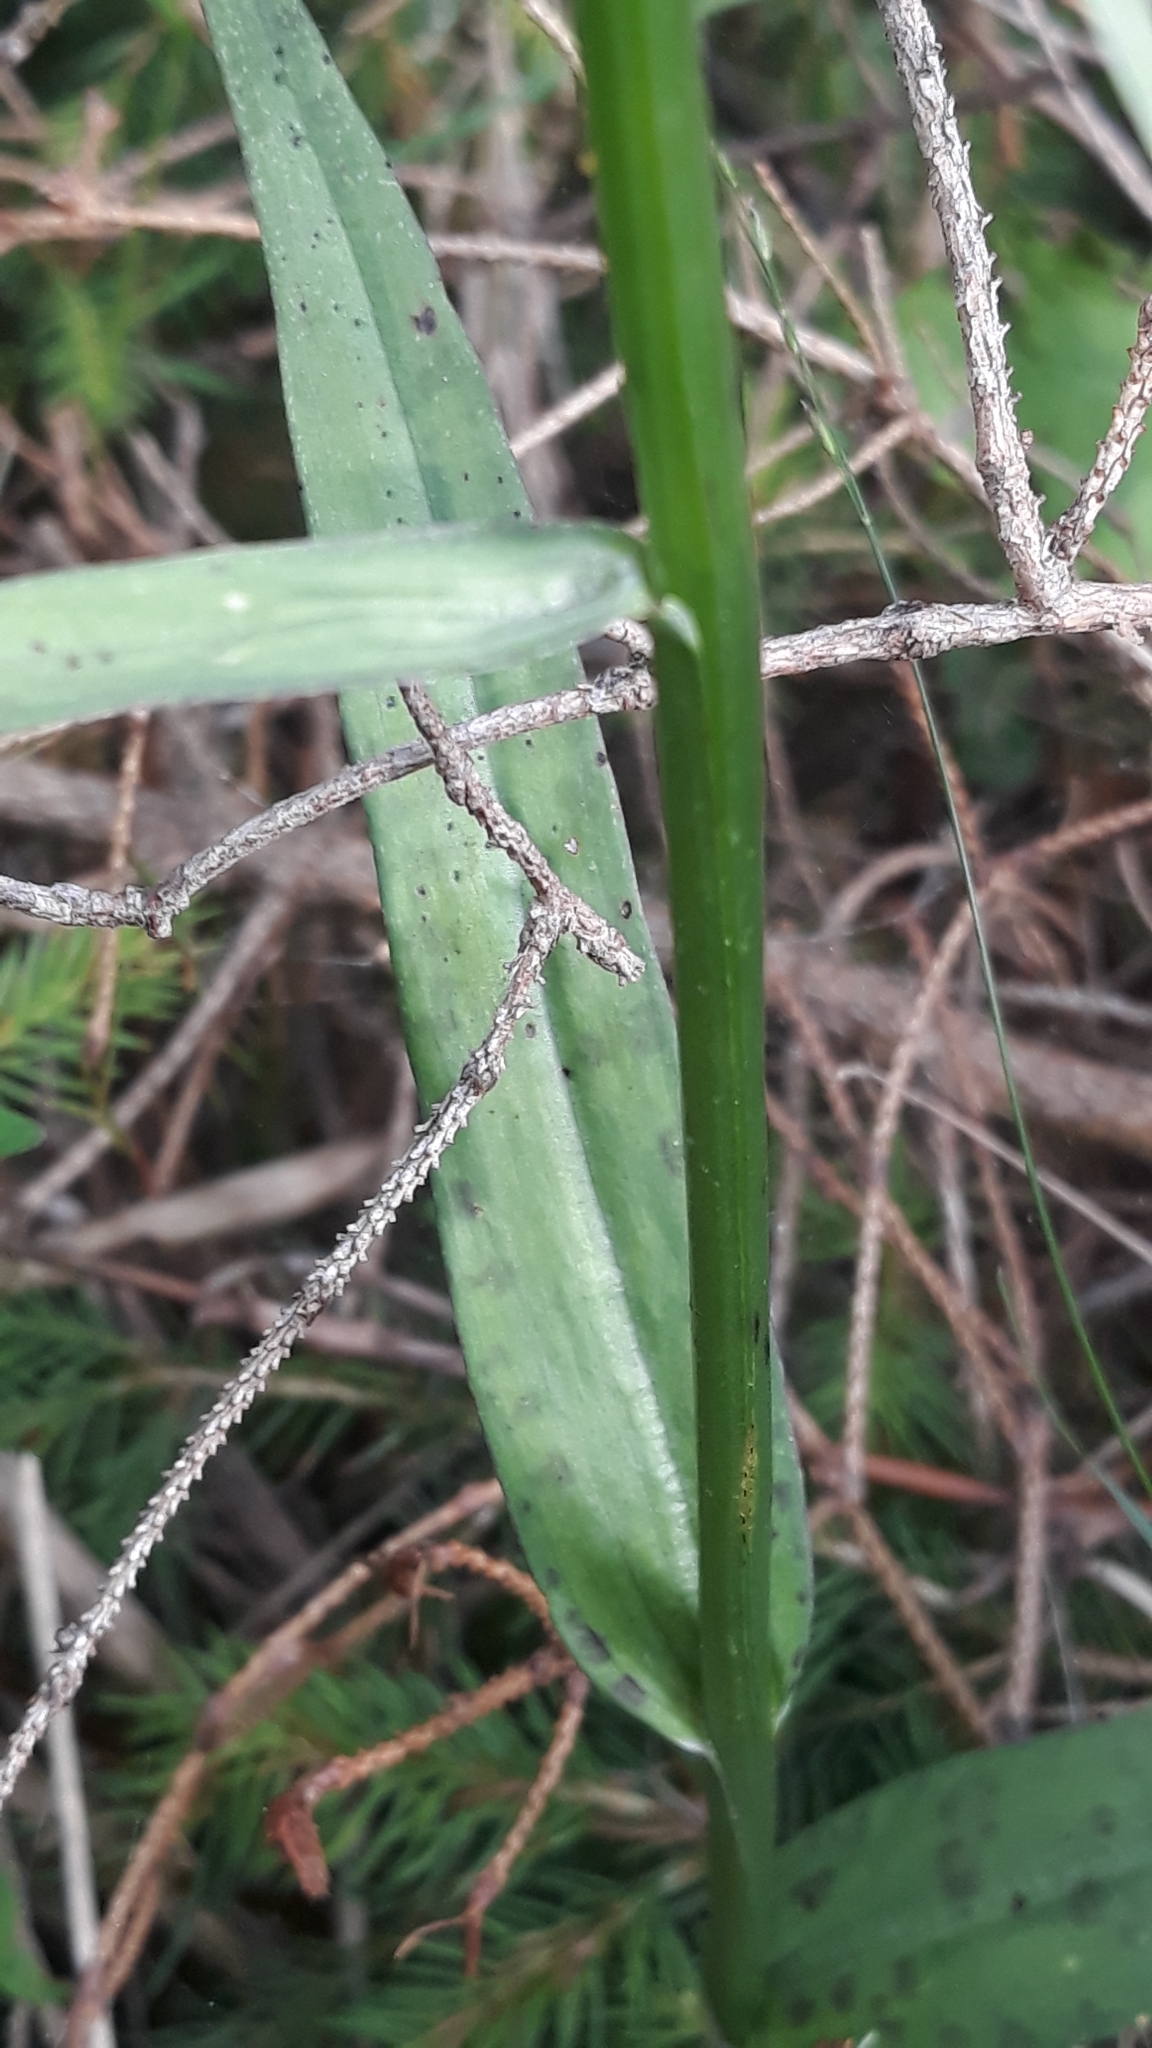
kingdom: Plantae
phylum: Tracheophyta
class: Liliopsida
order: Asparagales
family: Orchidaceae
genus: Dactylorhiza
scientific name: Dactylorhiza maculata
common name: Heath spotted-orchid
